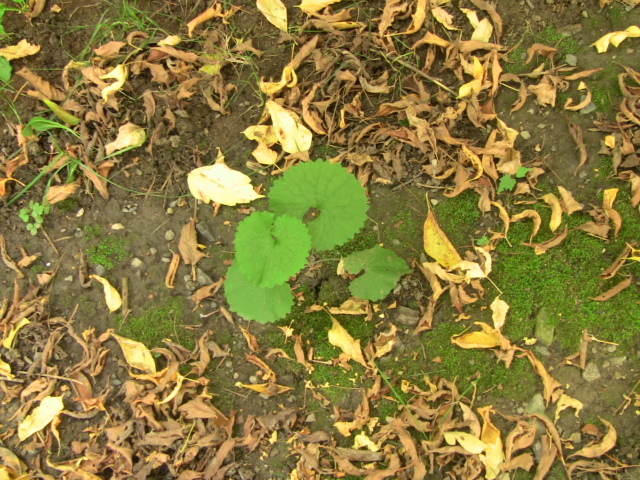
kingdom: Plantae
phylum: Tracheophyta
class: Magnoliopsida
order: Brassicales
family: Brassicaceae
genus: Alliaria
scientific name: Alliaria petiolata
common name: Garlic mustard
